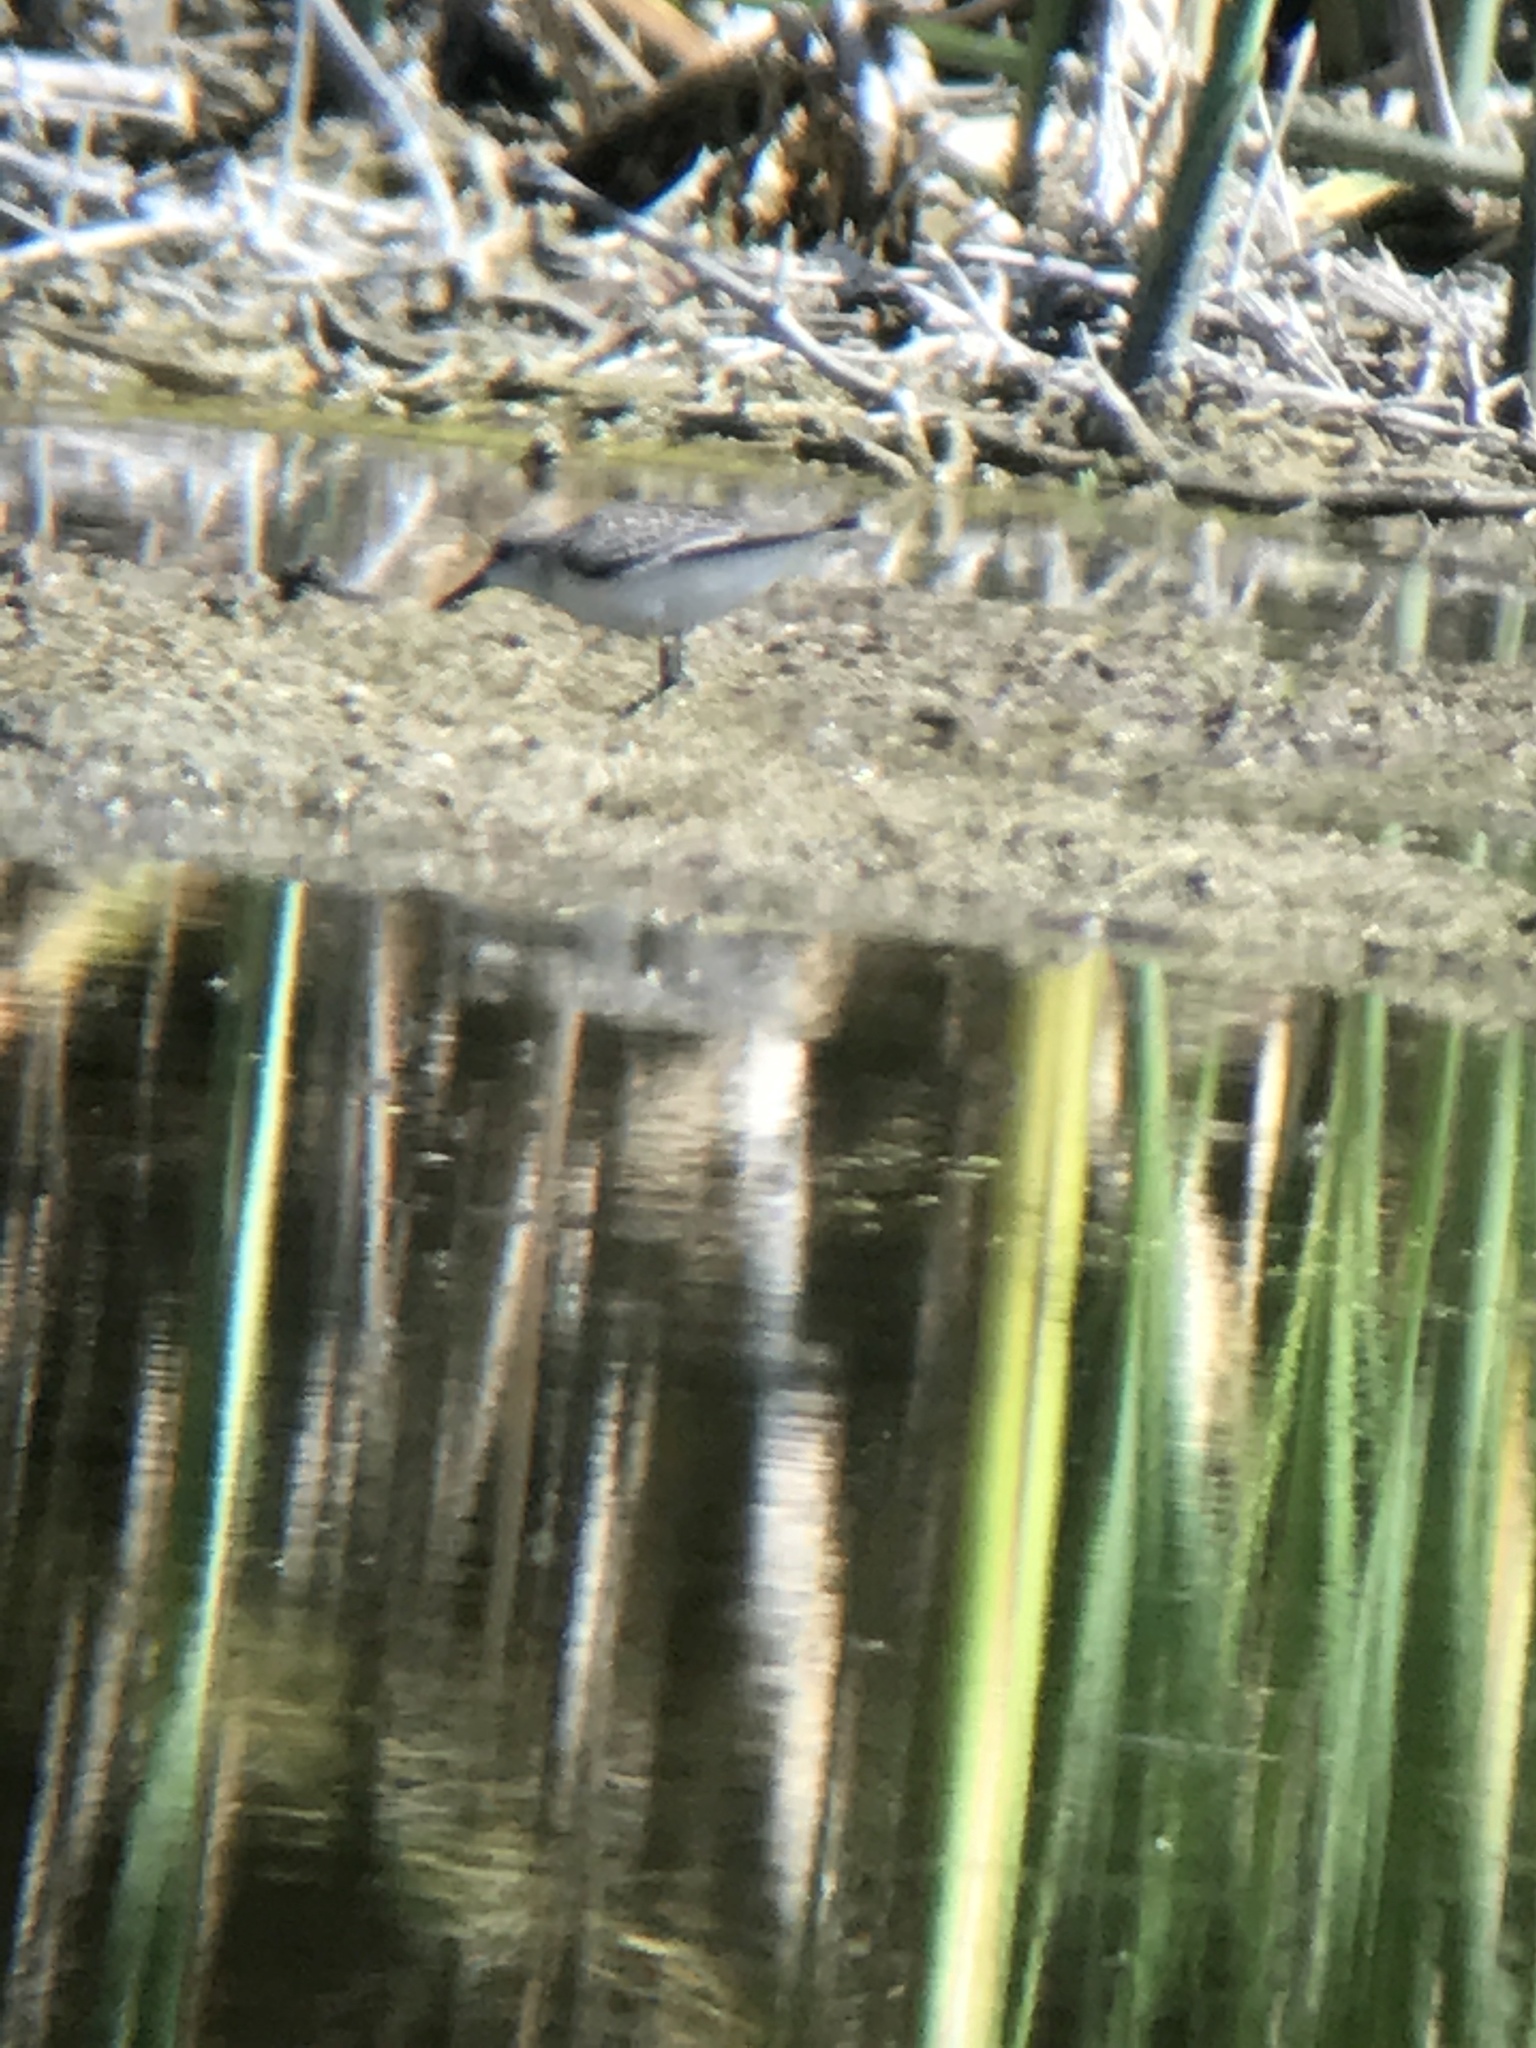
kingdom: Animalia
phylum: Chordata
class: Aves
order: Charadriiformes
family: Scolopacidae
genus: Calidris
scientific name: Calidris alba
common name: Sanderling
